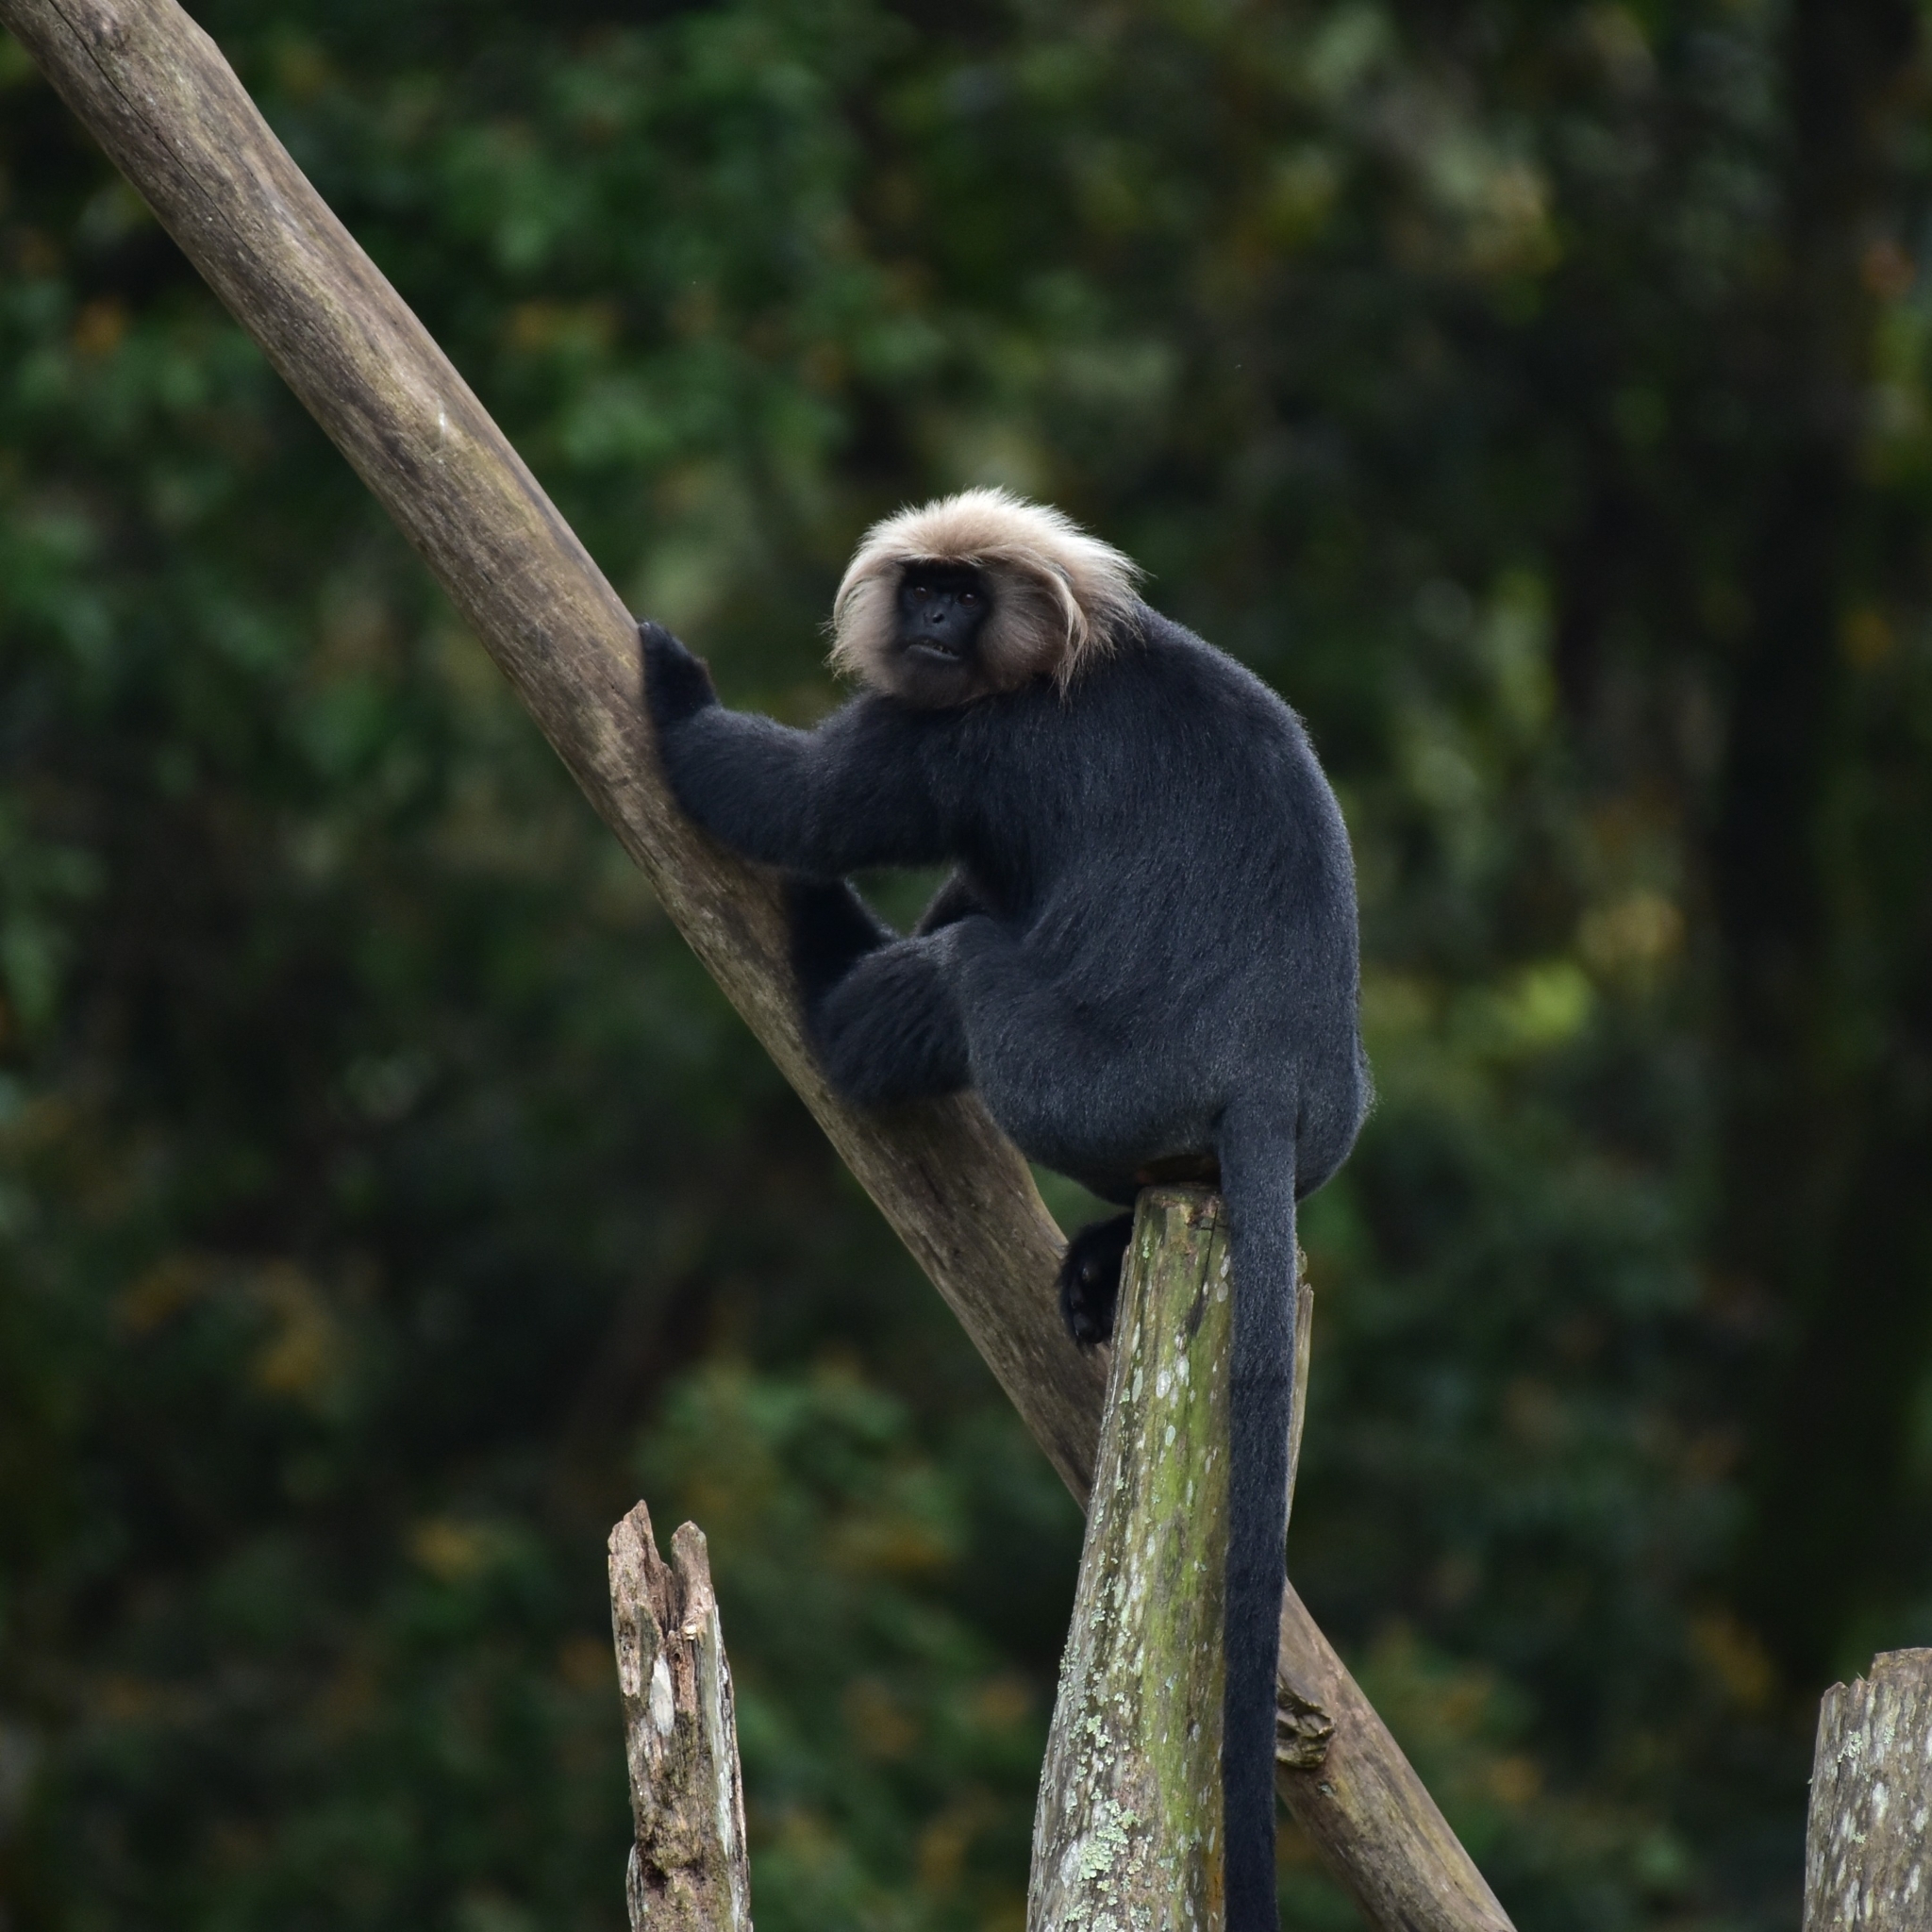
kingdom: Animalia
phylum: Chordata
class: Mammalia
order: Primates
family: Cercopithecidae
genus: Semnopithecus
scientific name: Semnopithecus johnii
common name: Nilgiri langur
